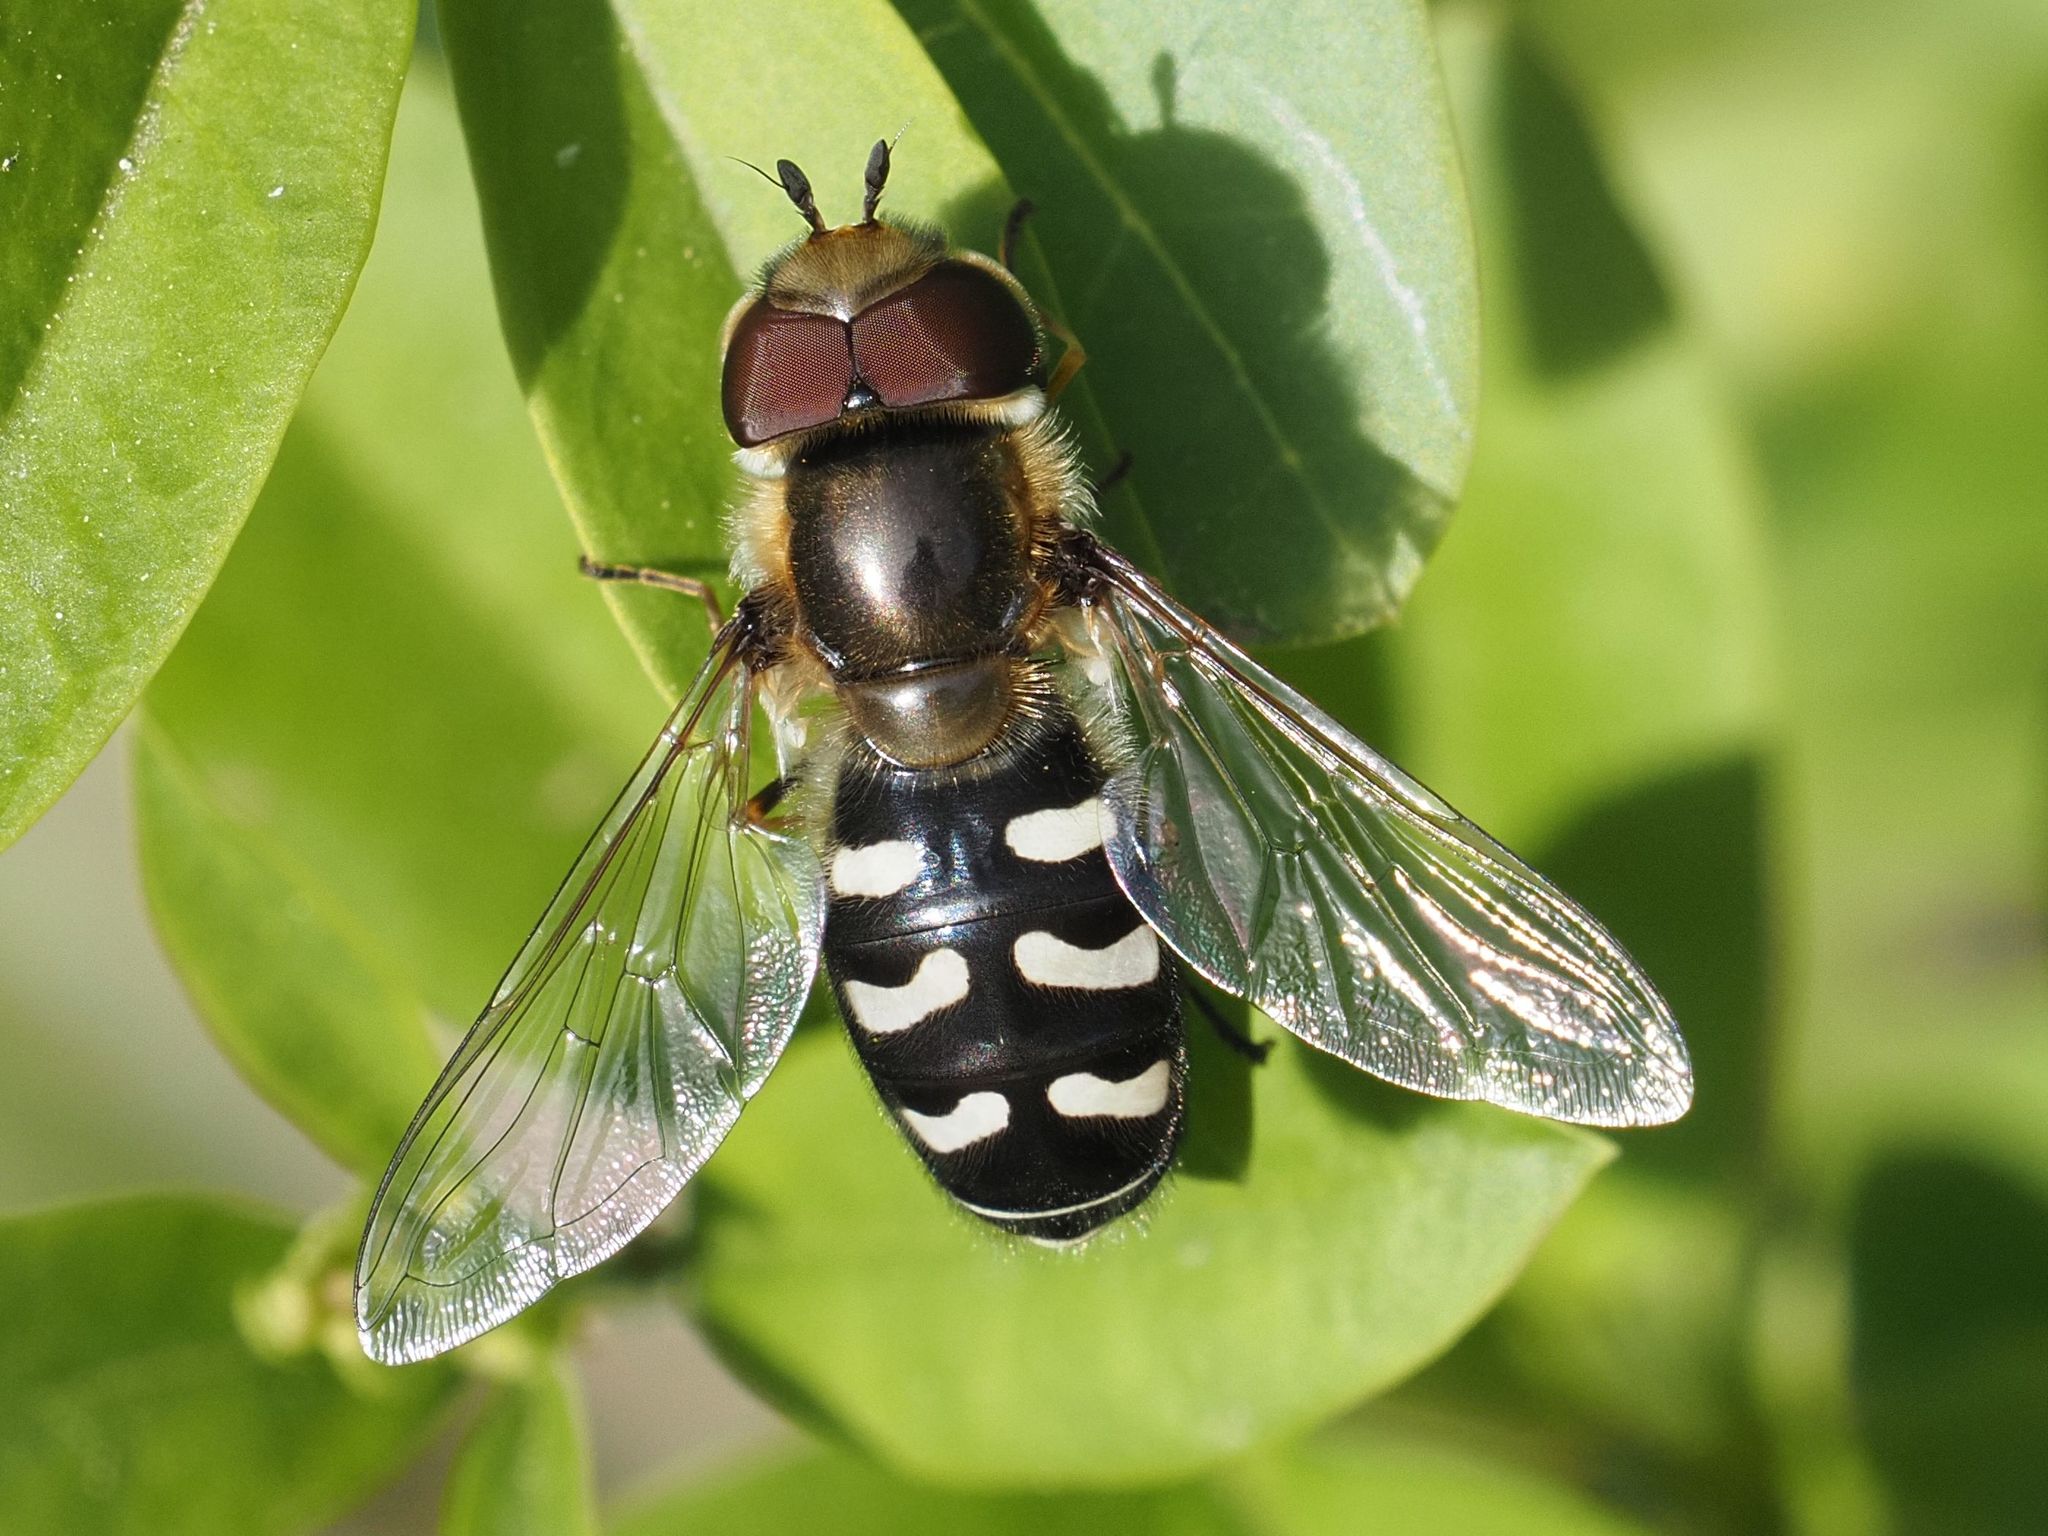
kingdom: Animalia
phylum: Arthropoda
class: Insecta
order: Diptera
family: Syrphidae
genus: Scaeva
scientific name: Scaeva pyrastri
